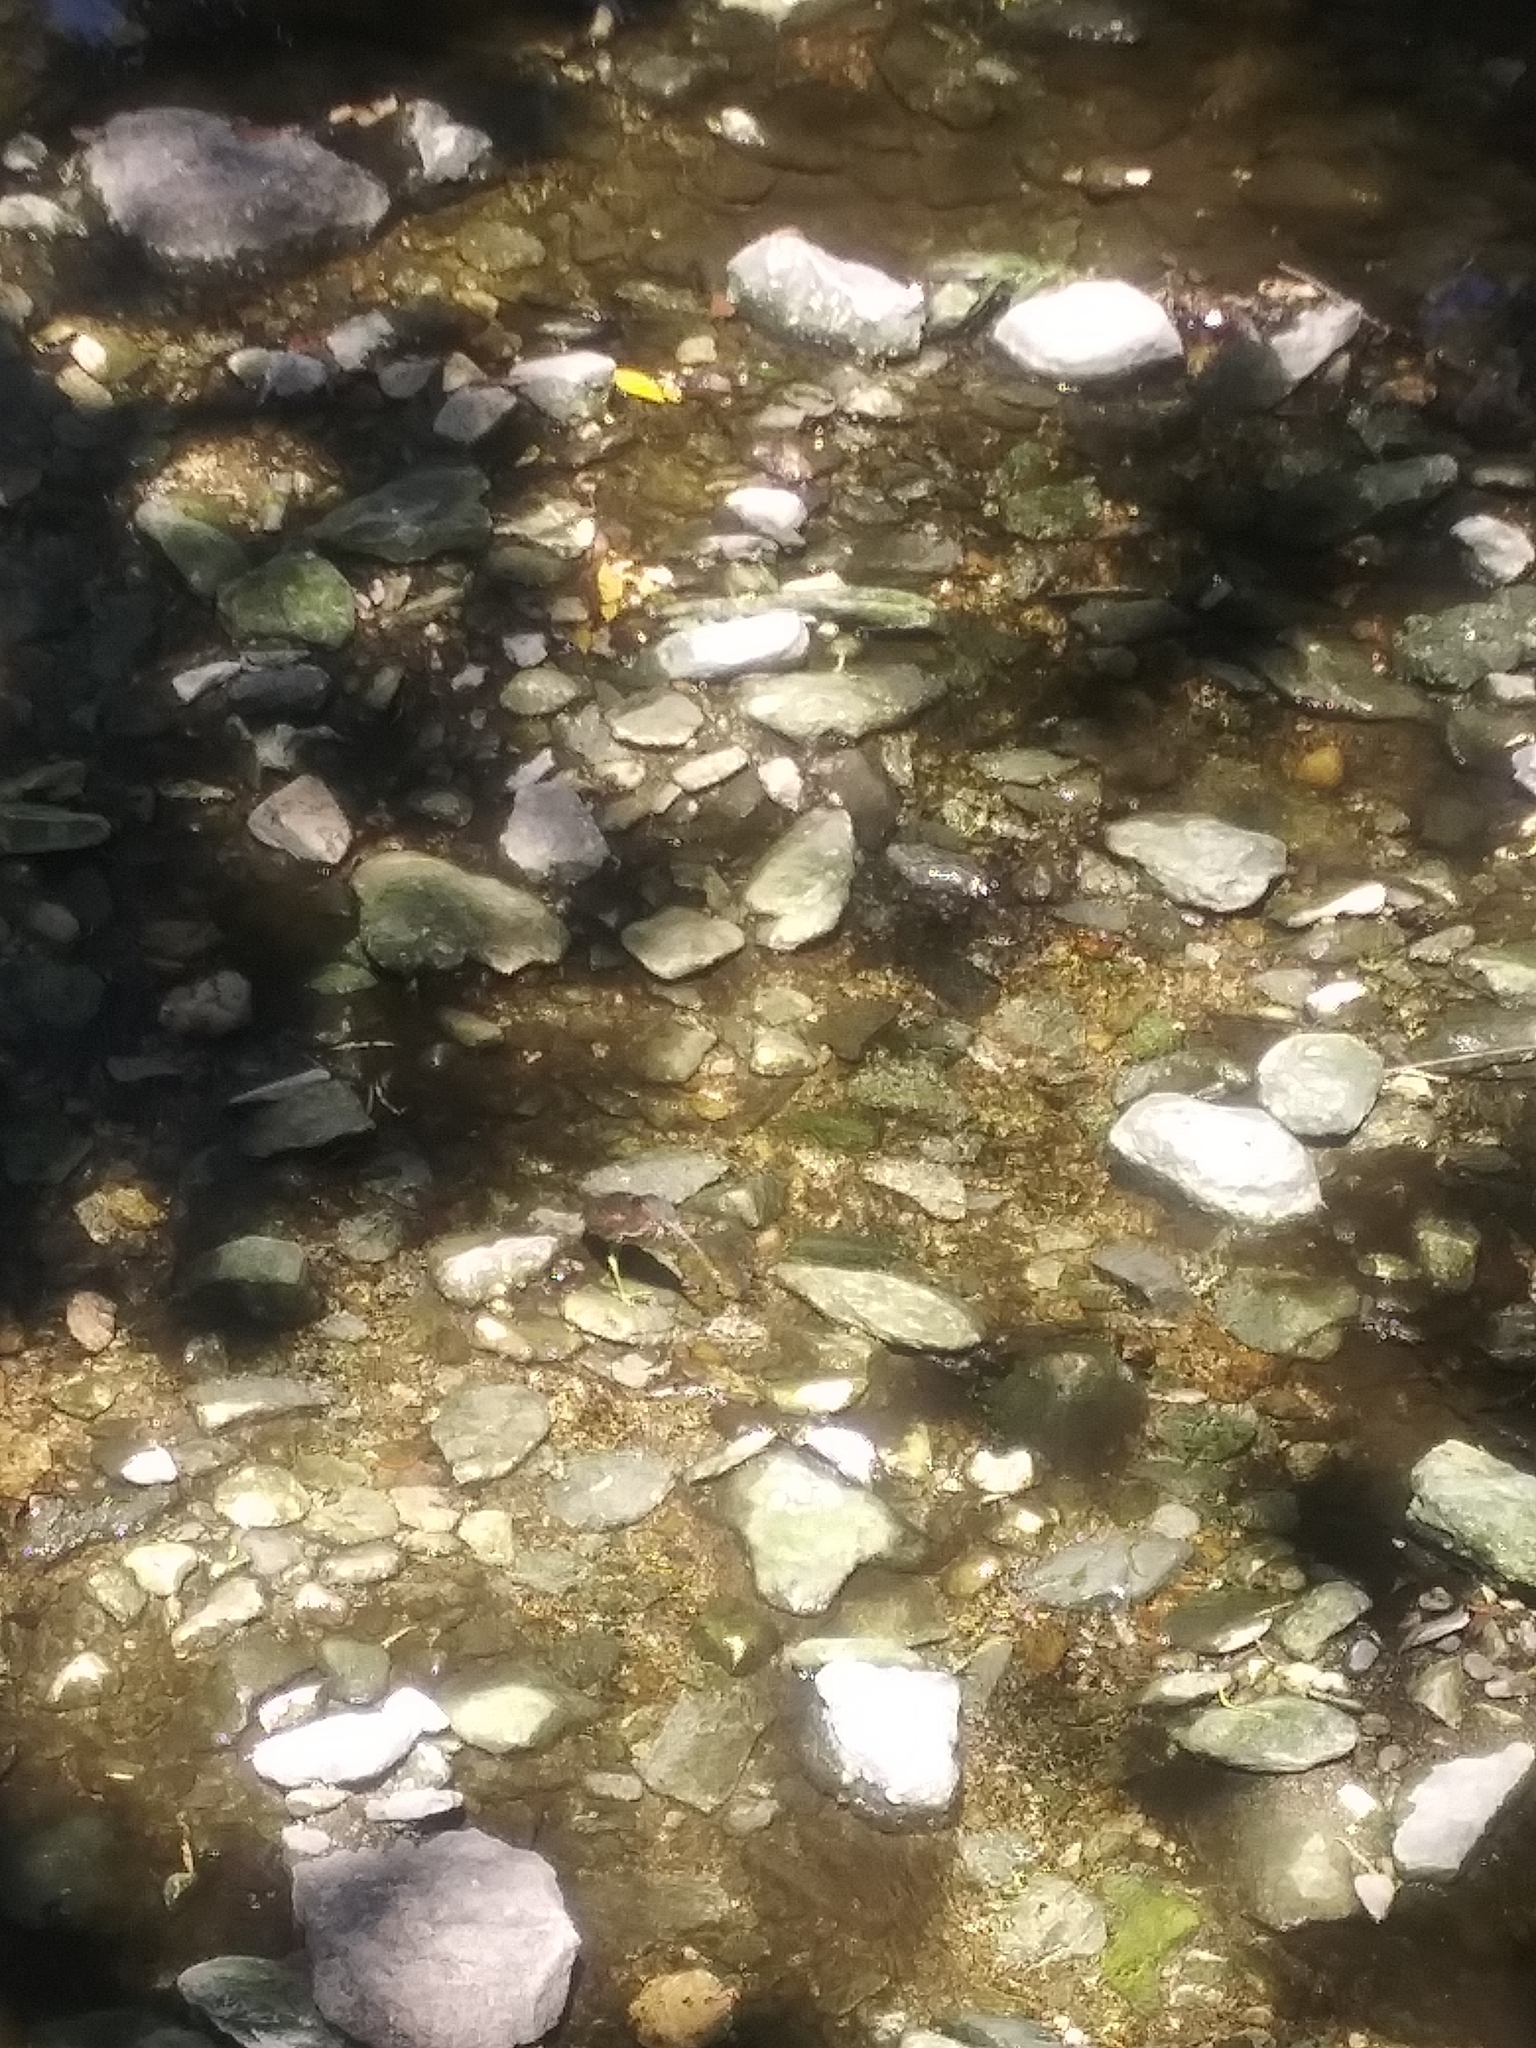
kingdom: Animalia
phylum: Chordata
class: Aves
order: Pelecaniformes
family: Ardeidae
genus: Butorides
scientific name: Butorides virescens
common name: Green heron
